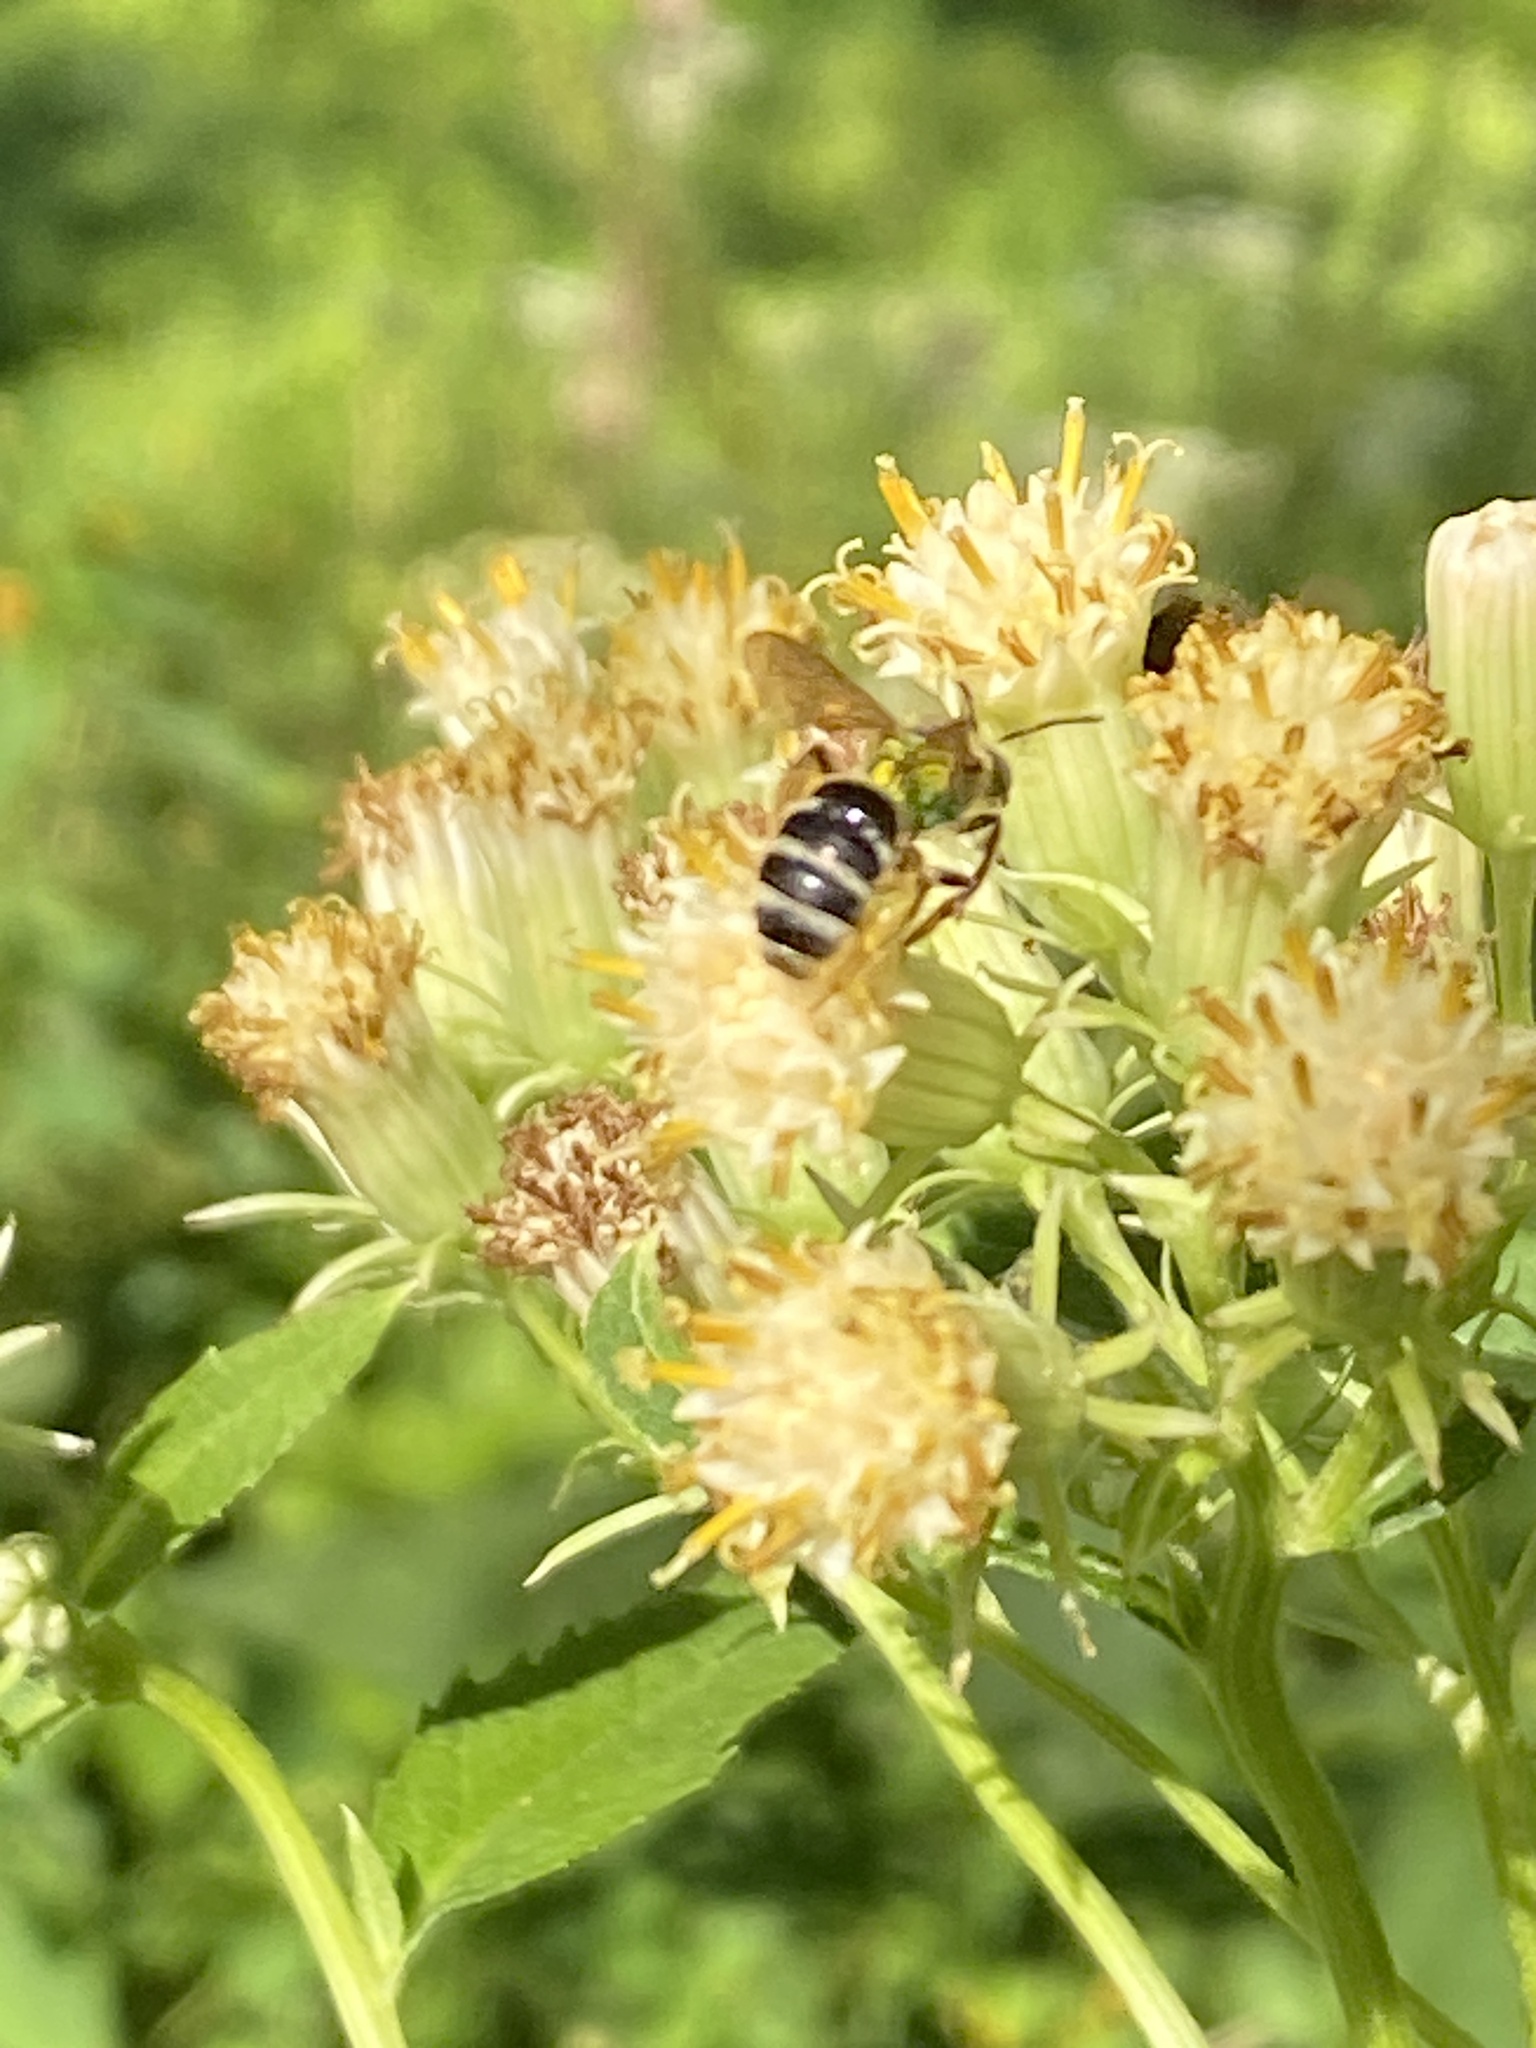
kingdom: Animalia
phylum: Arthropoda
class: Insecta
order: Hymenoptera
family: Halictidae
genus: Agapostemon
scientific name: Agapostemon virescens
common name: Bicolored striped sweat bee
